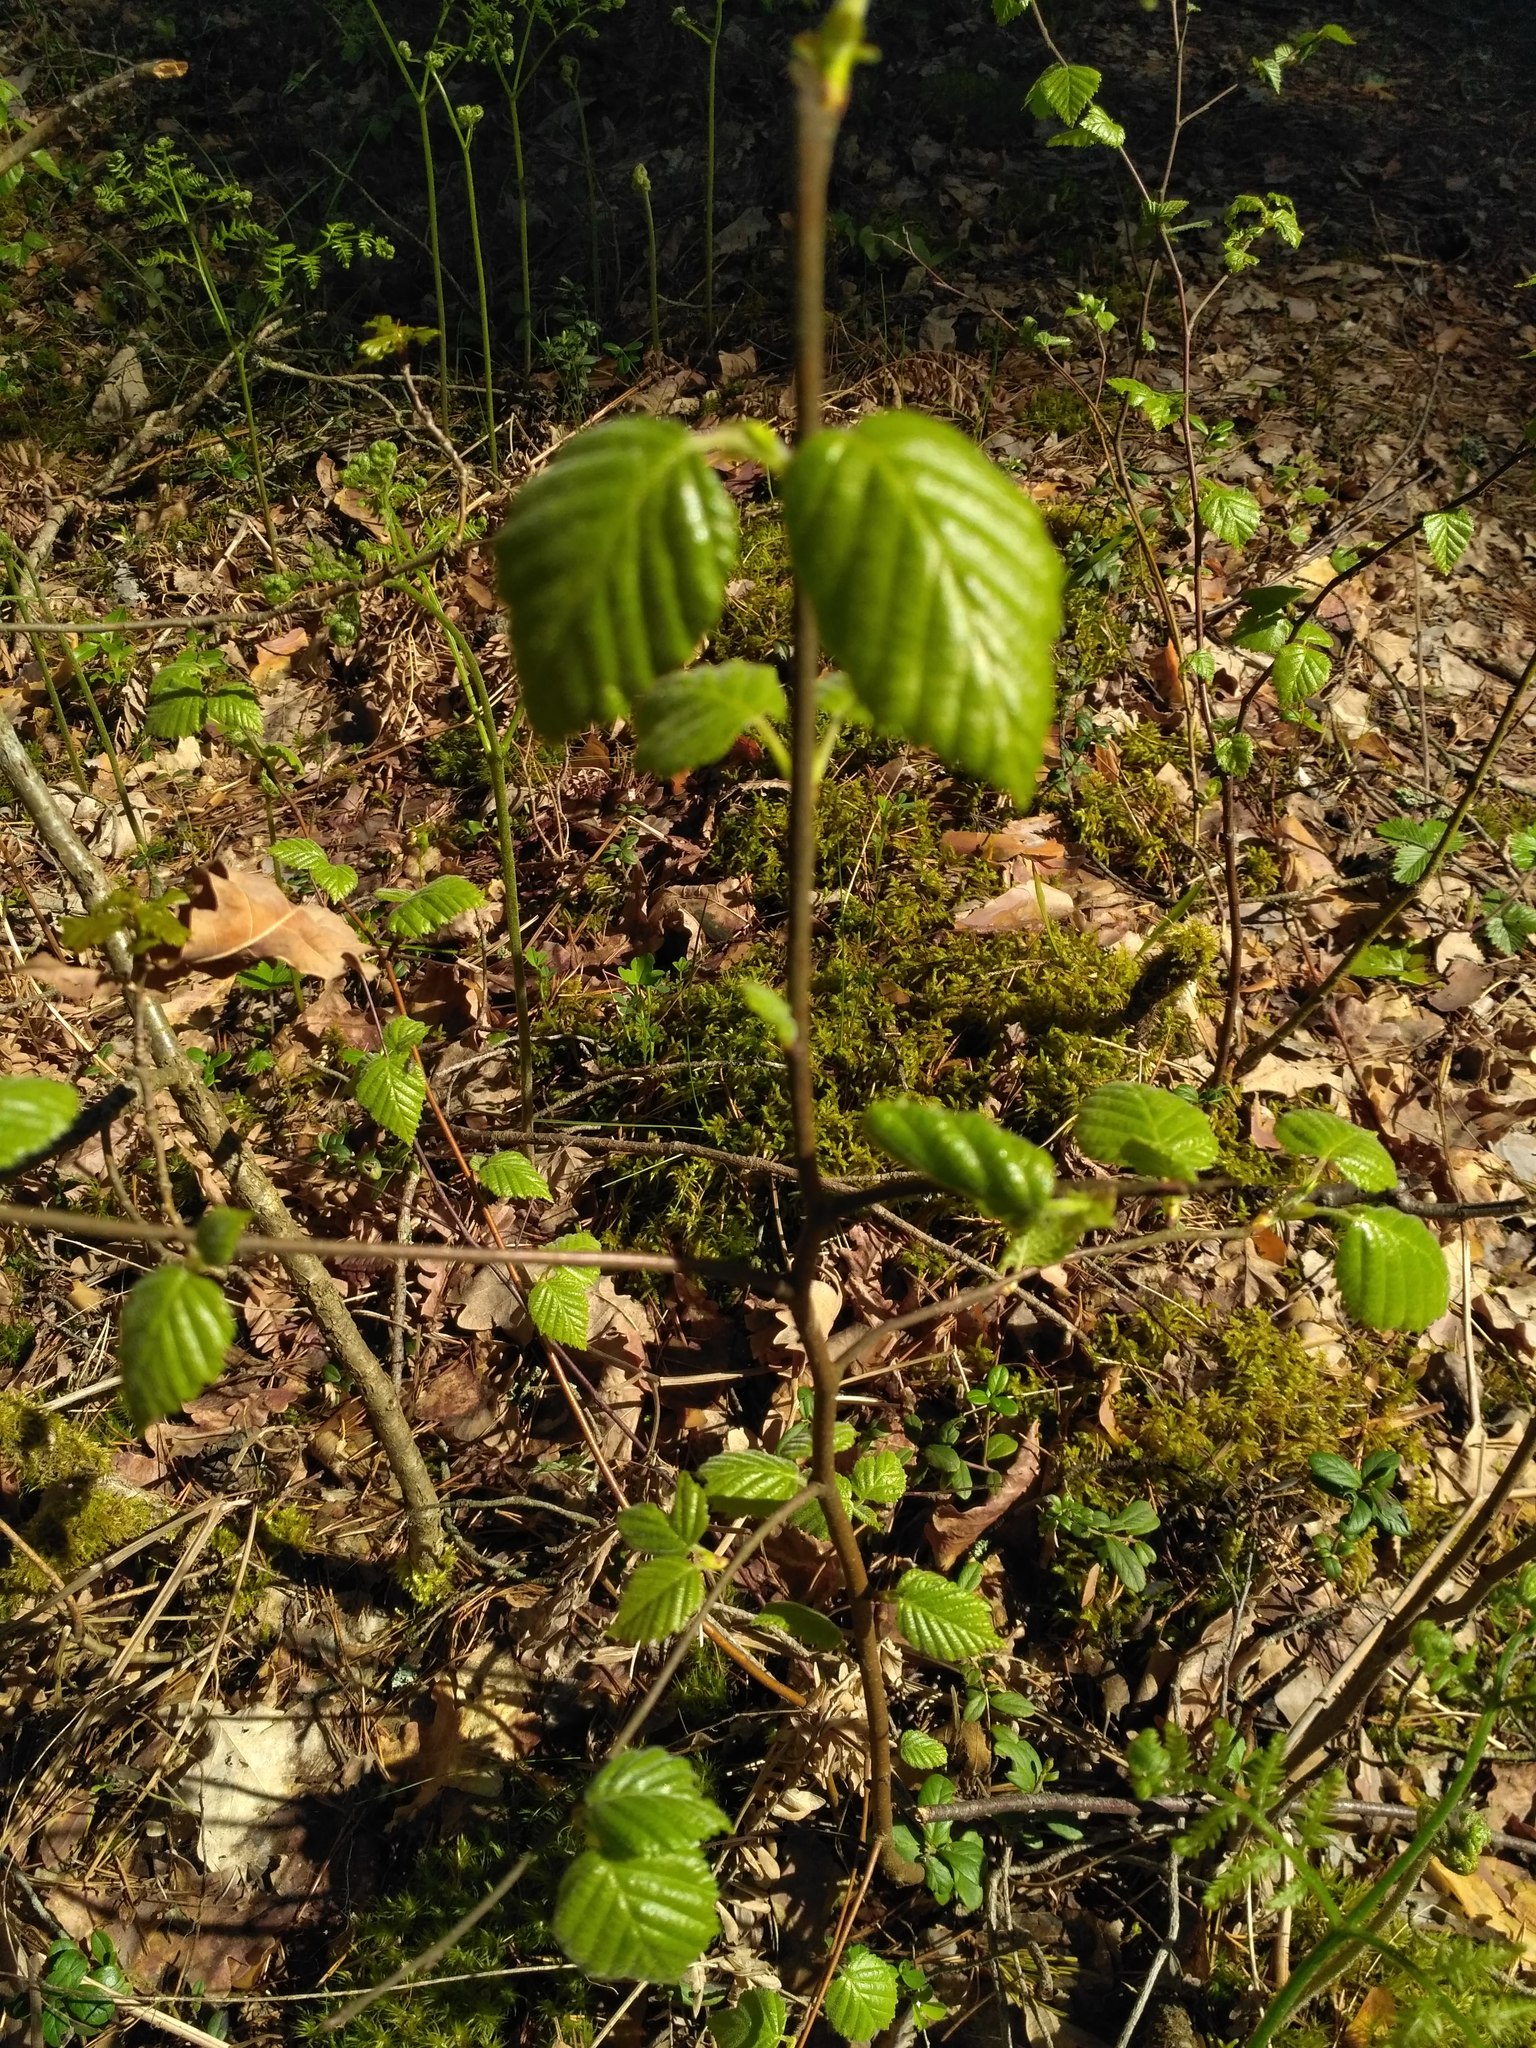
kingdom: Plantae
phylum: Tracheophyta
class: Magnoliopsida
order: Fagales
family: Betulaceae
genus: Betula
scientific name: Betula pubescens
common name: Downy birch
